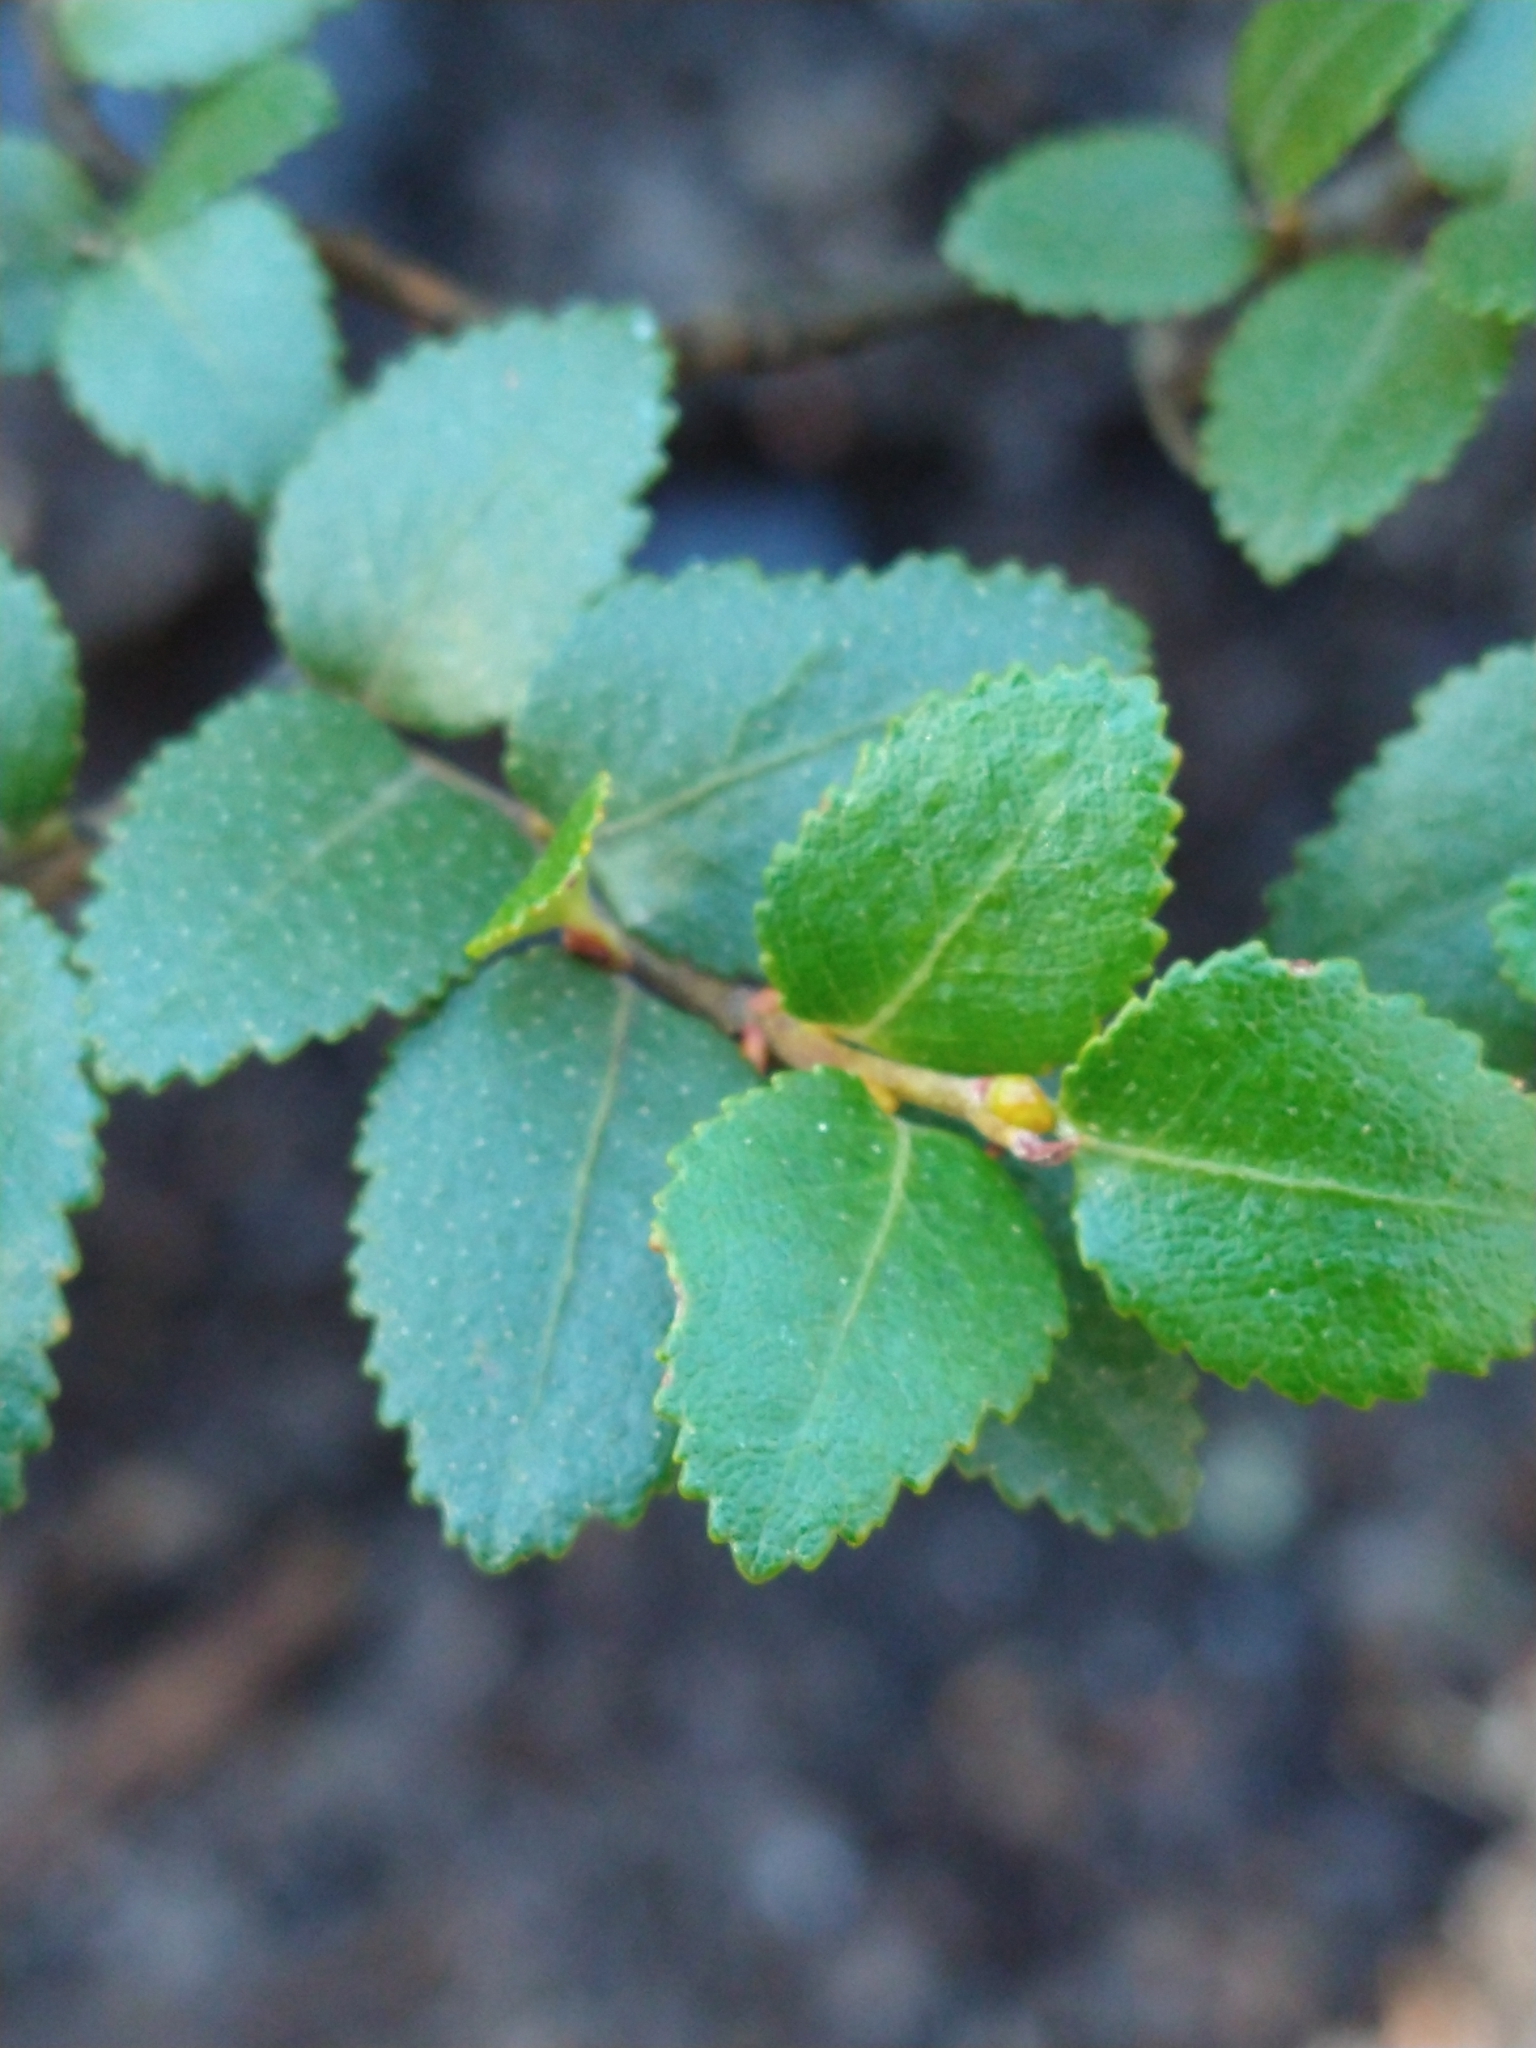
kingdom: Plantae
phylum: Tracheophyta
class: Magnoliopsida
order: Fagales
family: Nothofagaceae
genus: Nothofagus
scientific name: Nothofagus betuloides
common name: Magellan's beech
